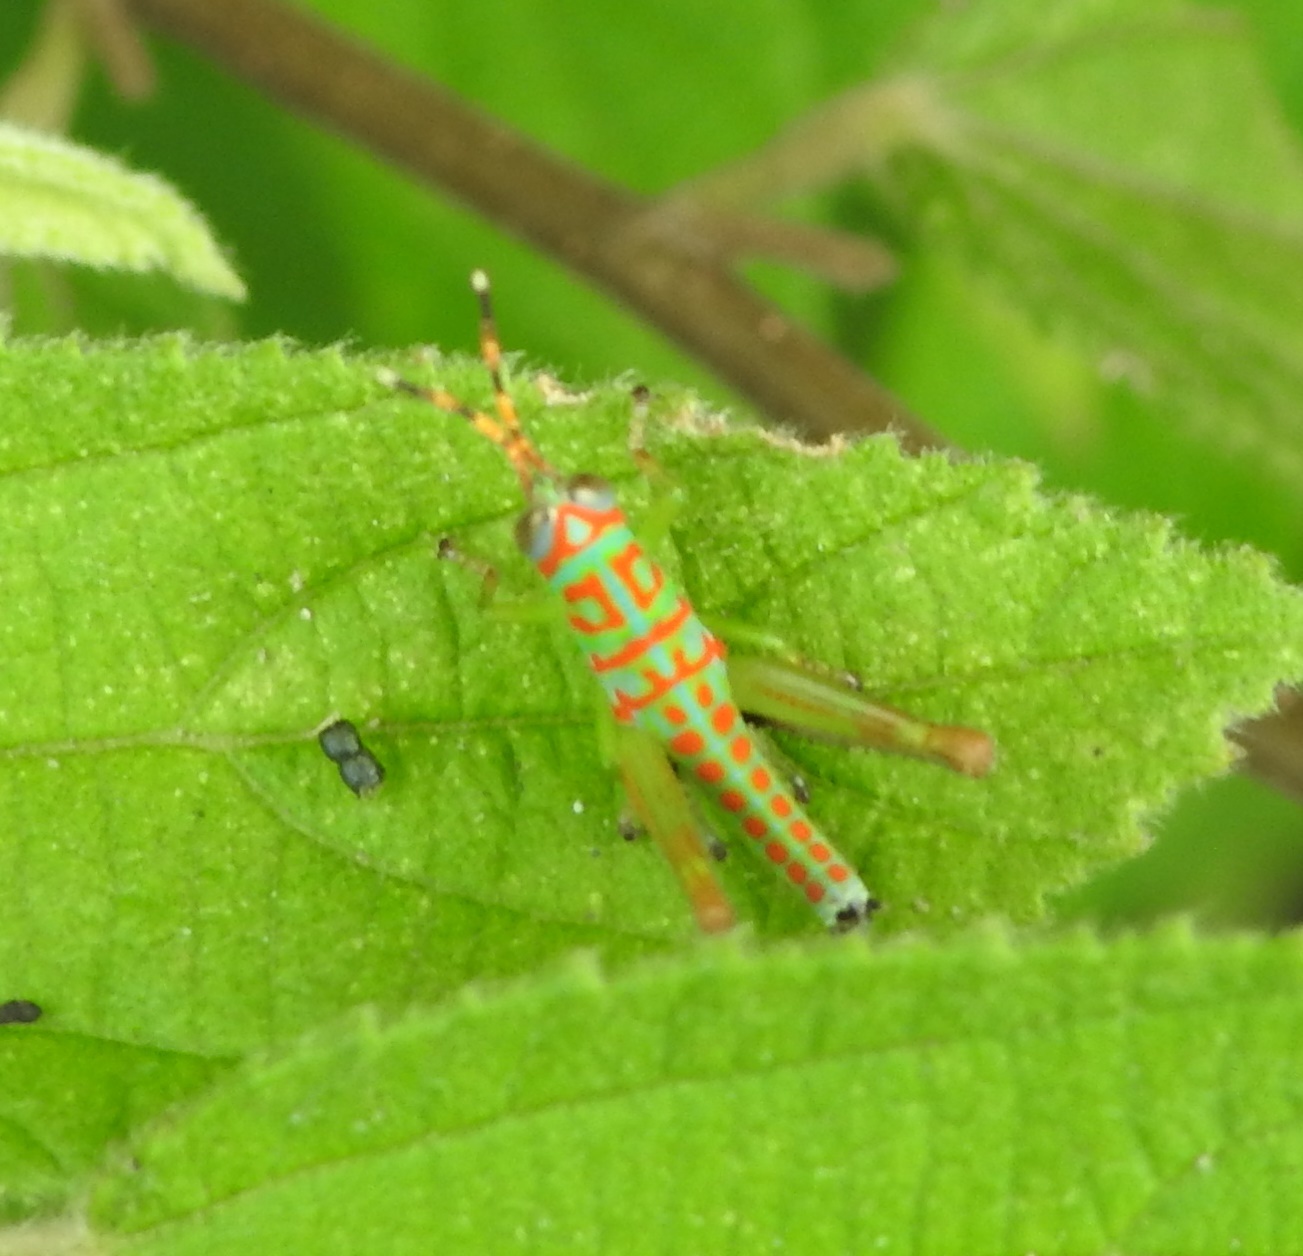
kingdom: Animalia
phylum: Arthropoda
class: Insecta
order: Orthoptera
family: Acrididae
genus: Pirithoicus
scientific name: Pirithoicus ophthalmicus
